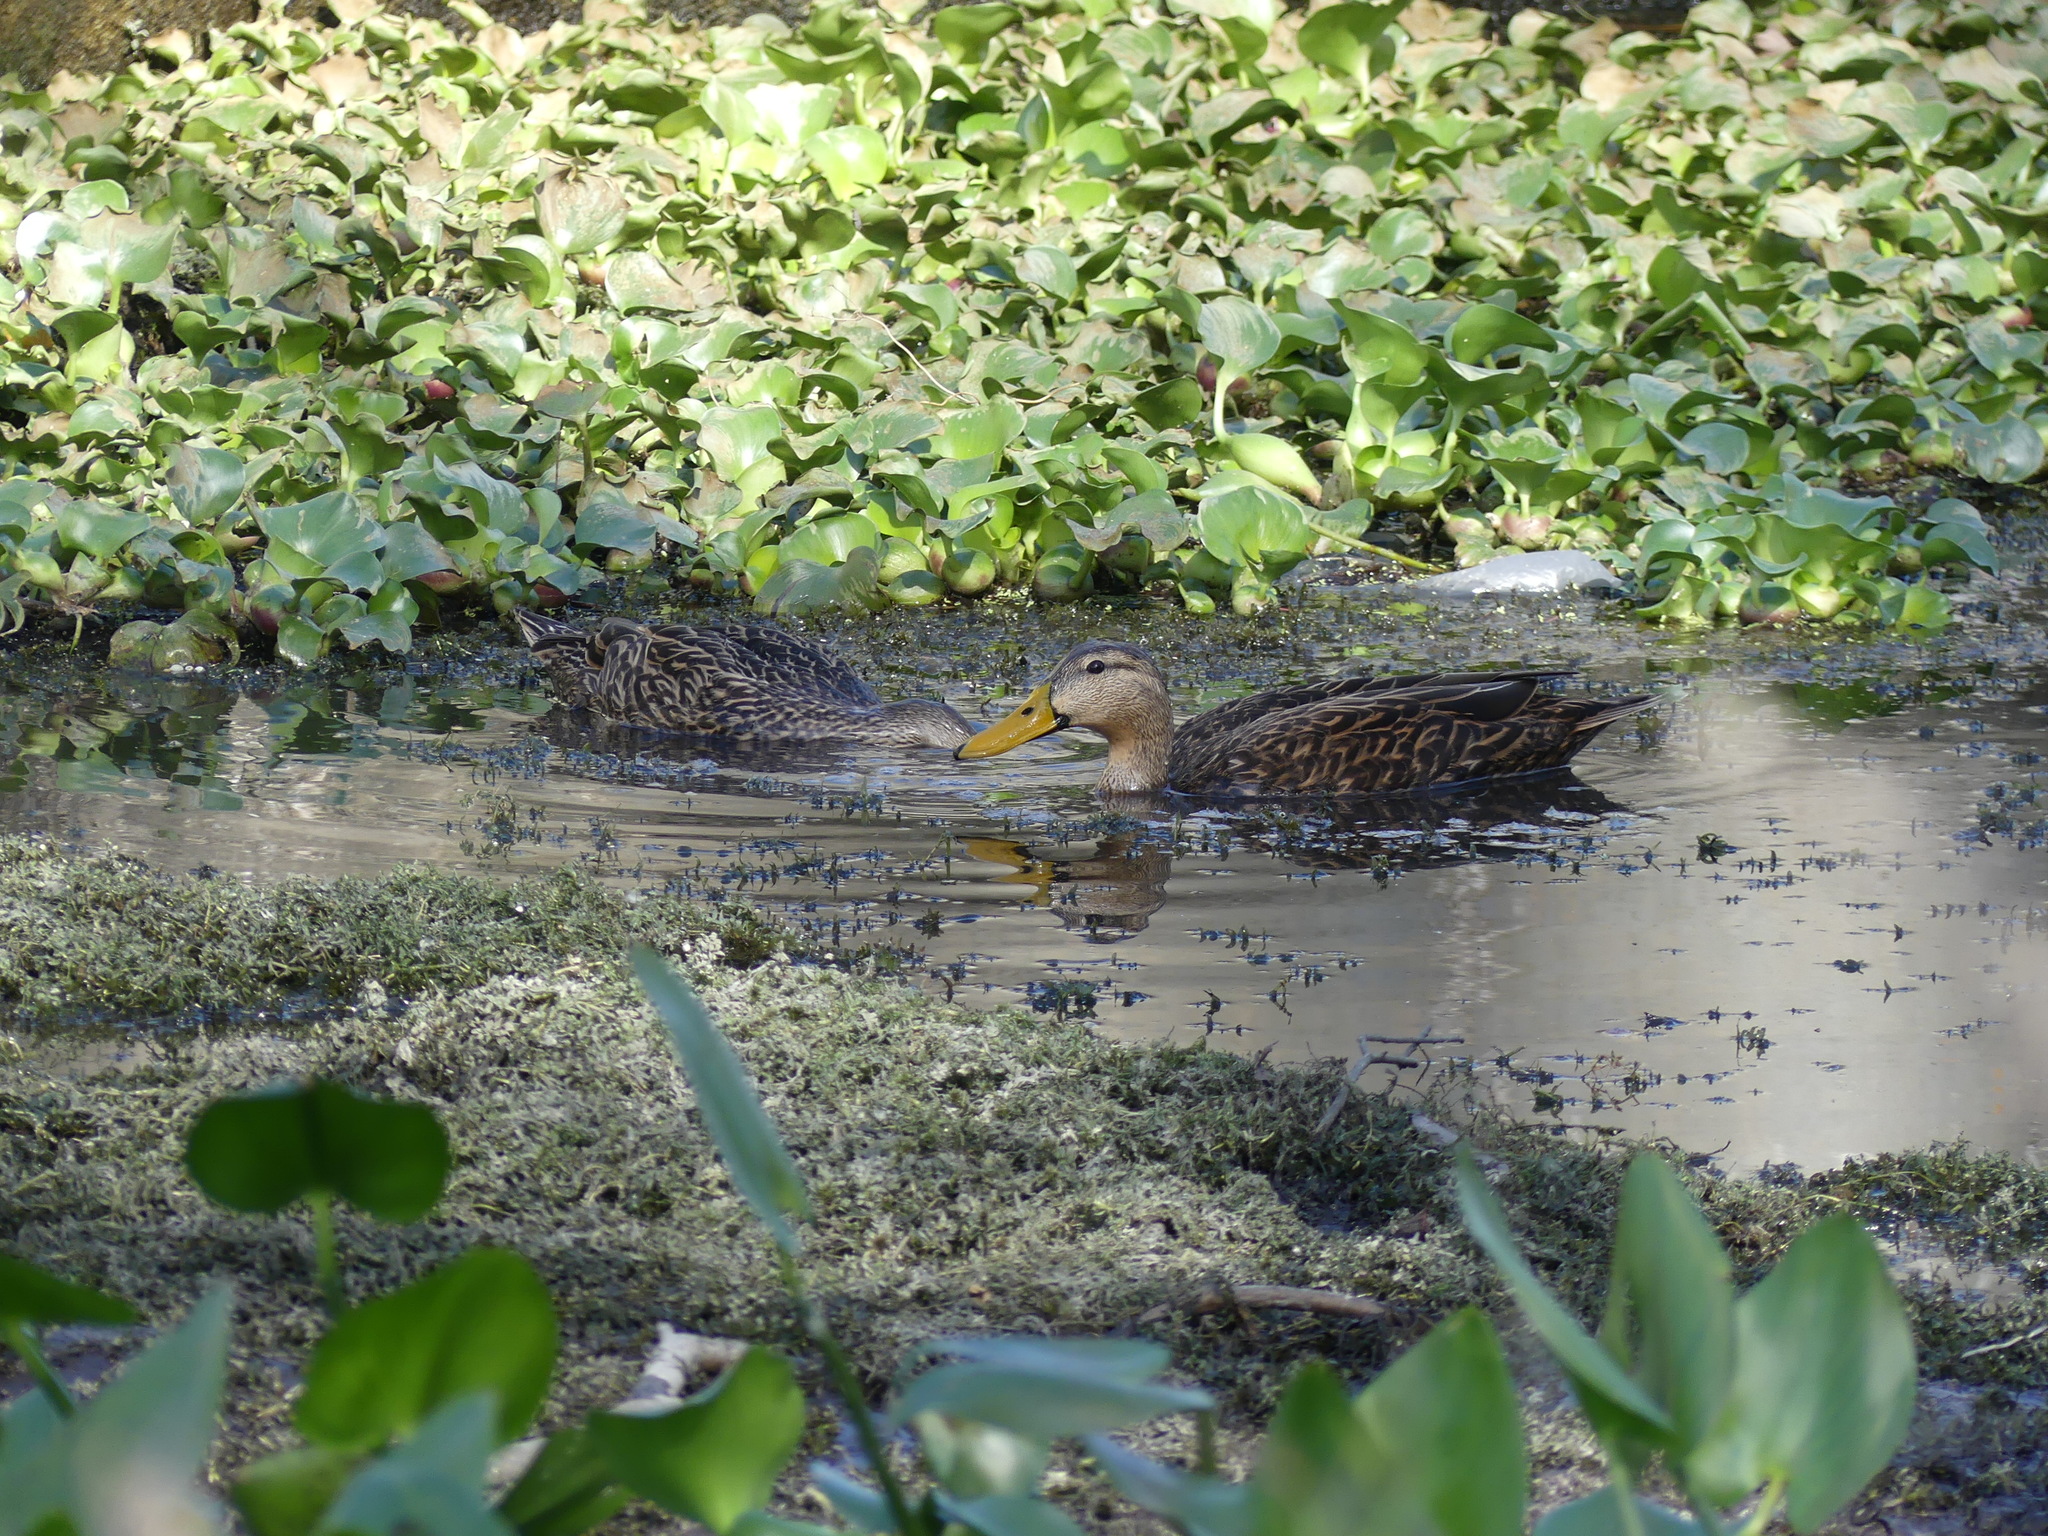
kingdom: Animalia
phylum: Chordata
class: Aves
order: Anseriformes
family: Anatidae
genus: Anas
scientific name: Anas fulvigula
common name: Mottled duck
